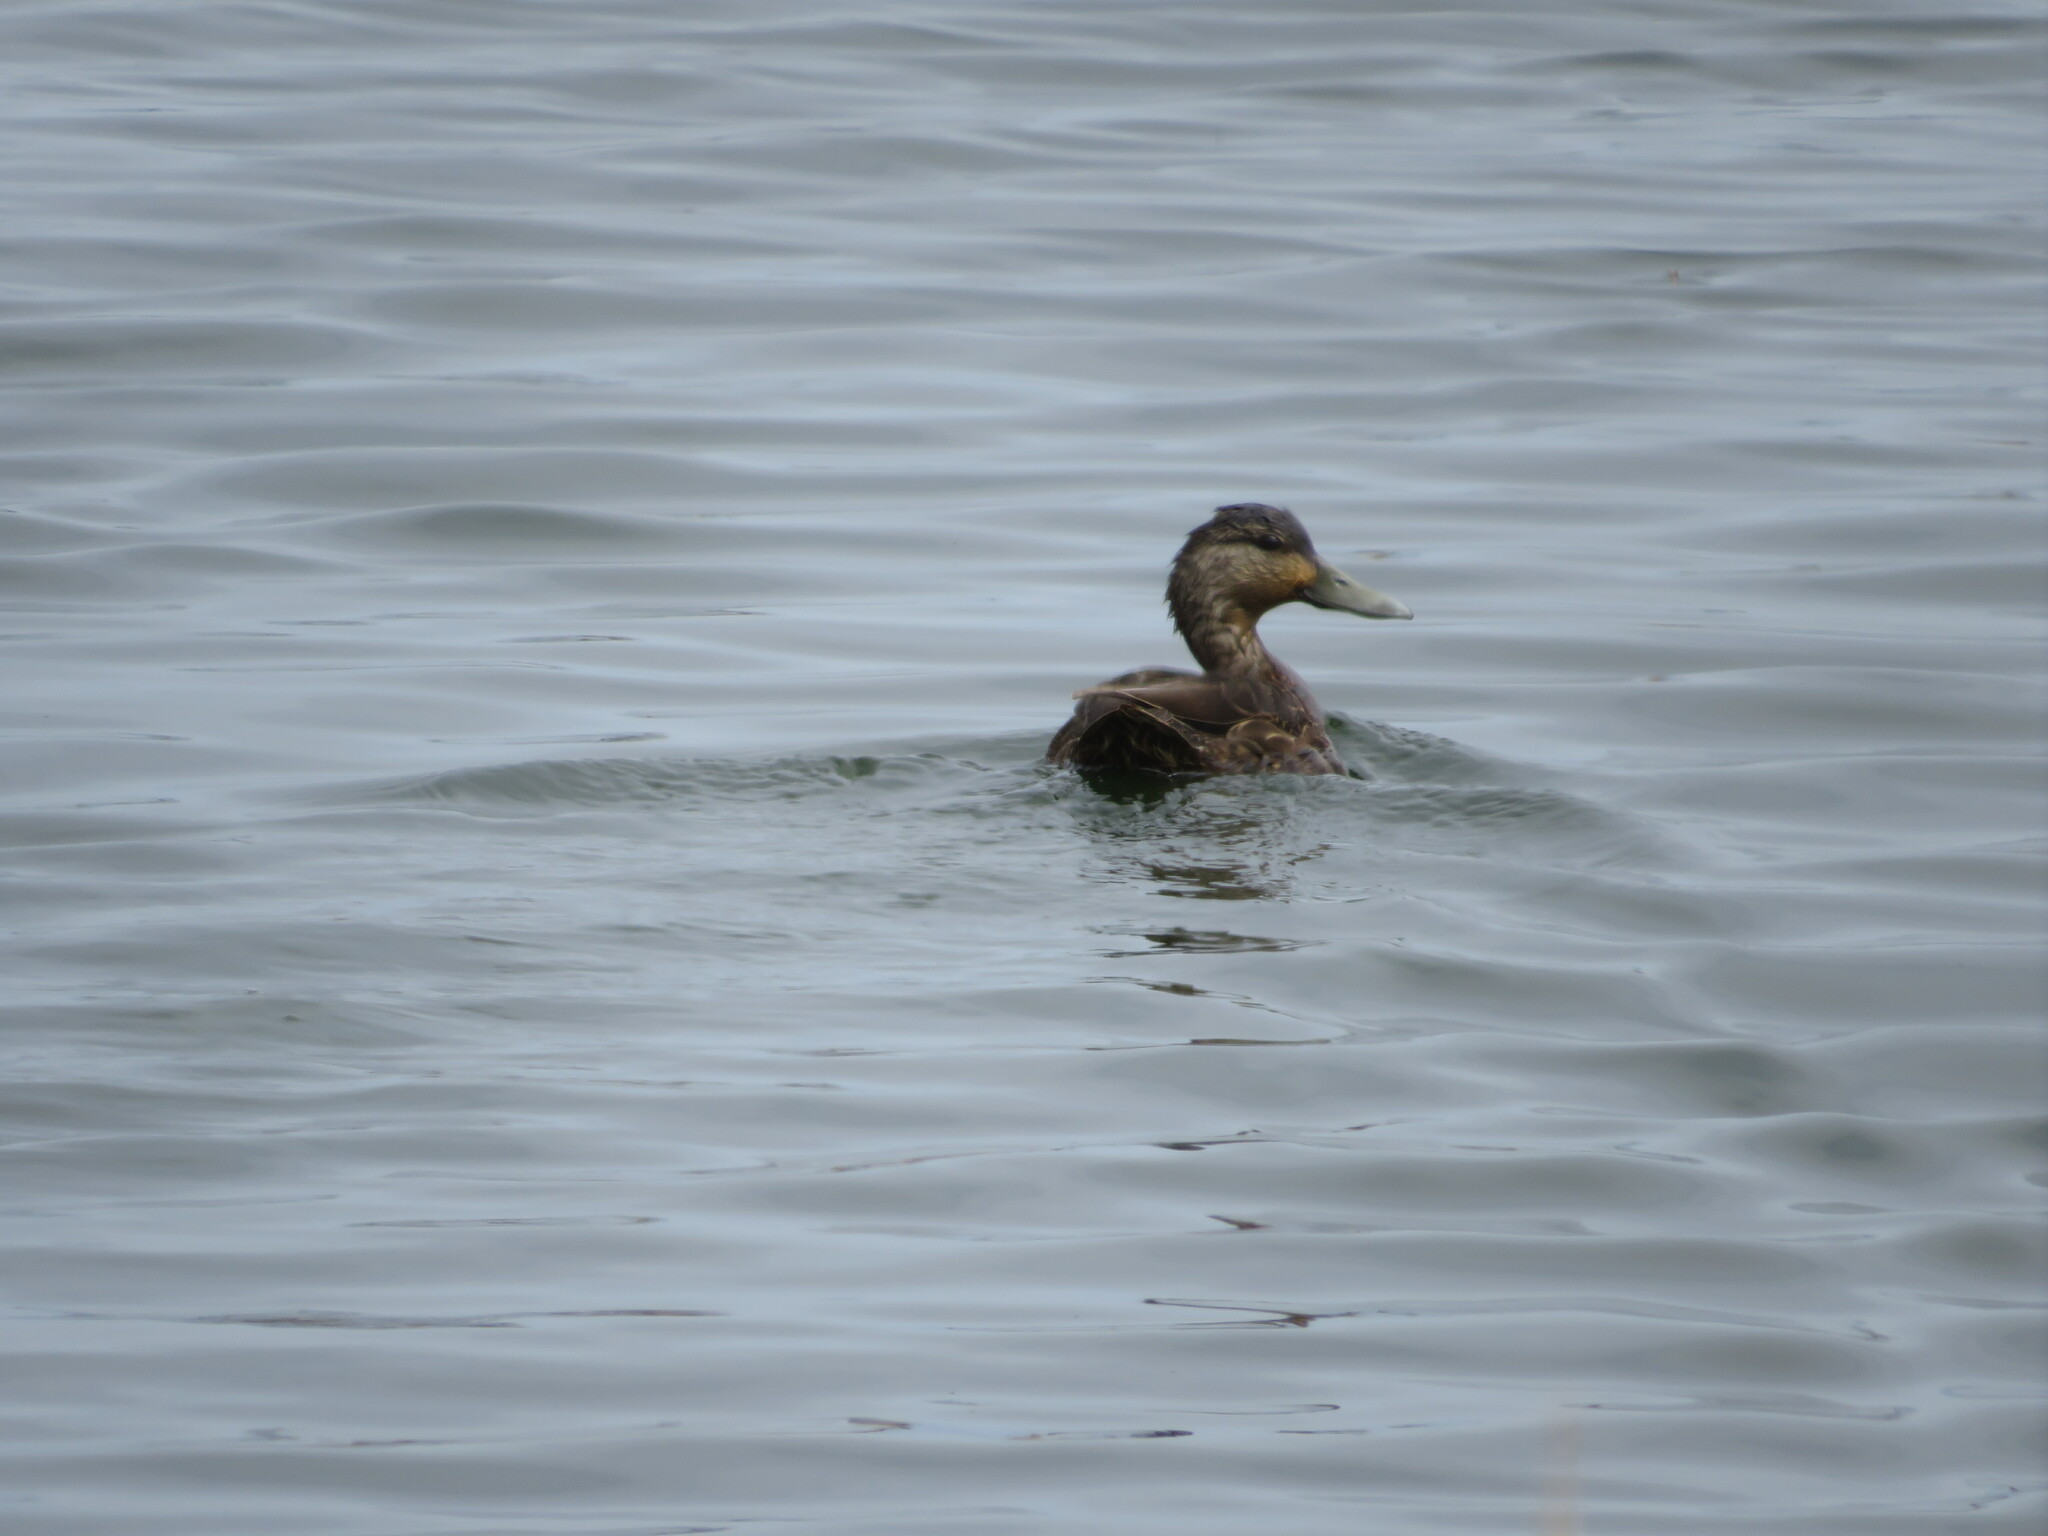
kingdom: Animalia
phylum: Chordata
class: Aves
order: Anseriformes
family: Anatidae
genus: Anas
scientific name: Anas rubripes
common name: American black duck
